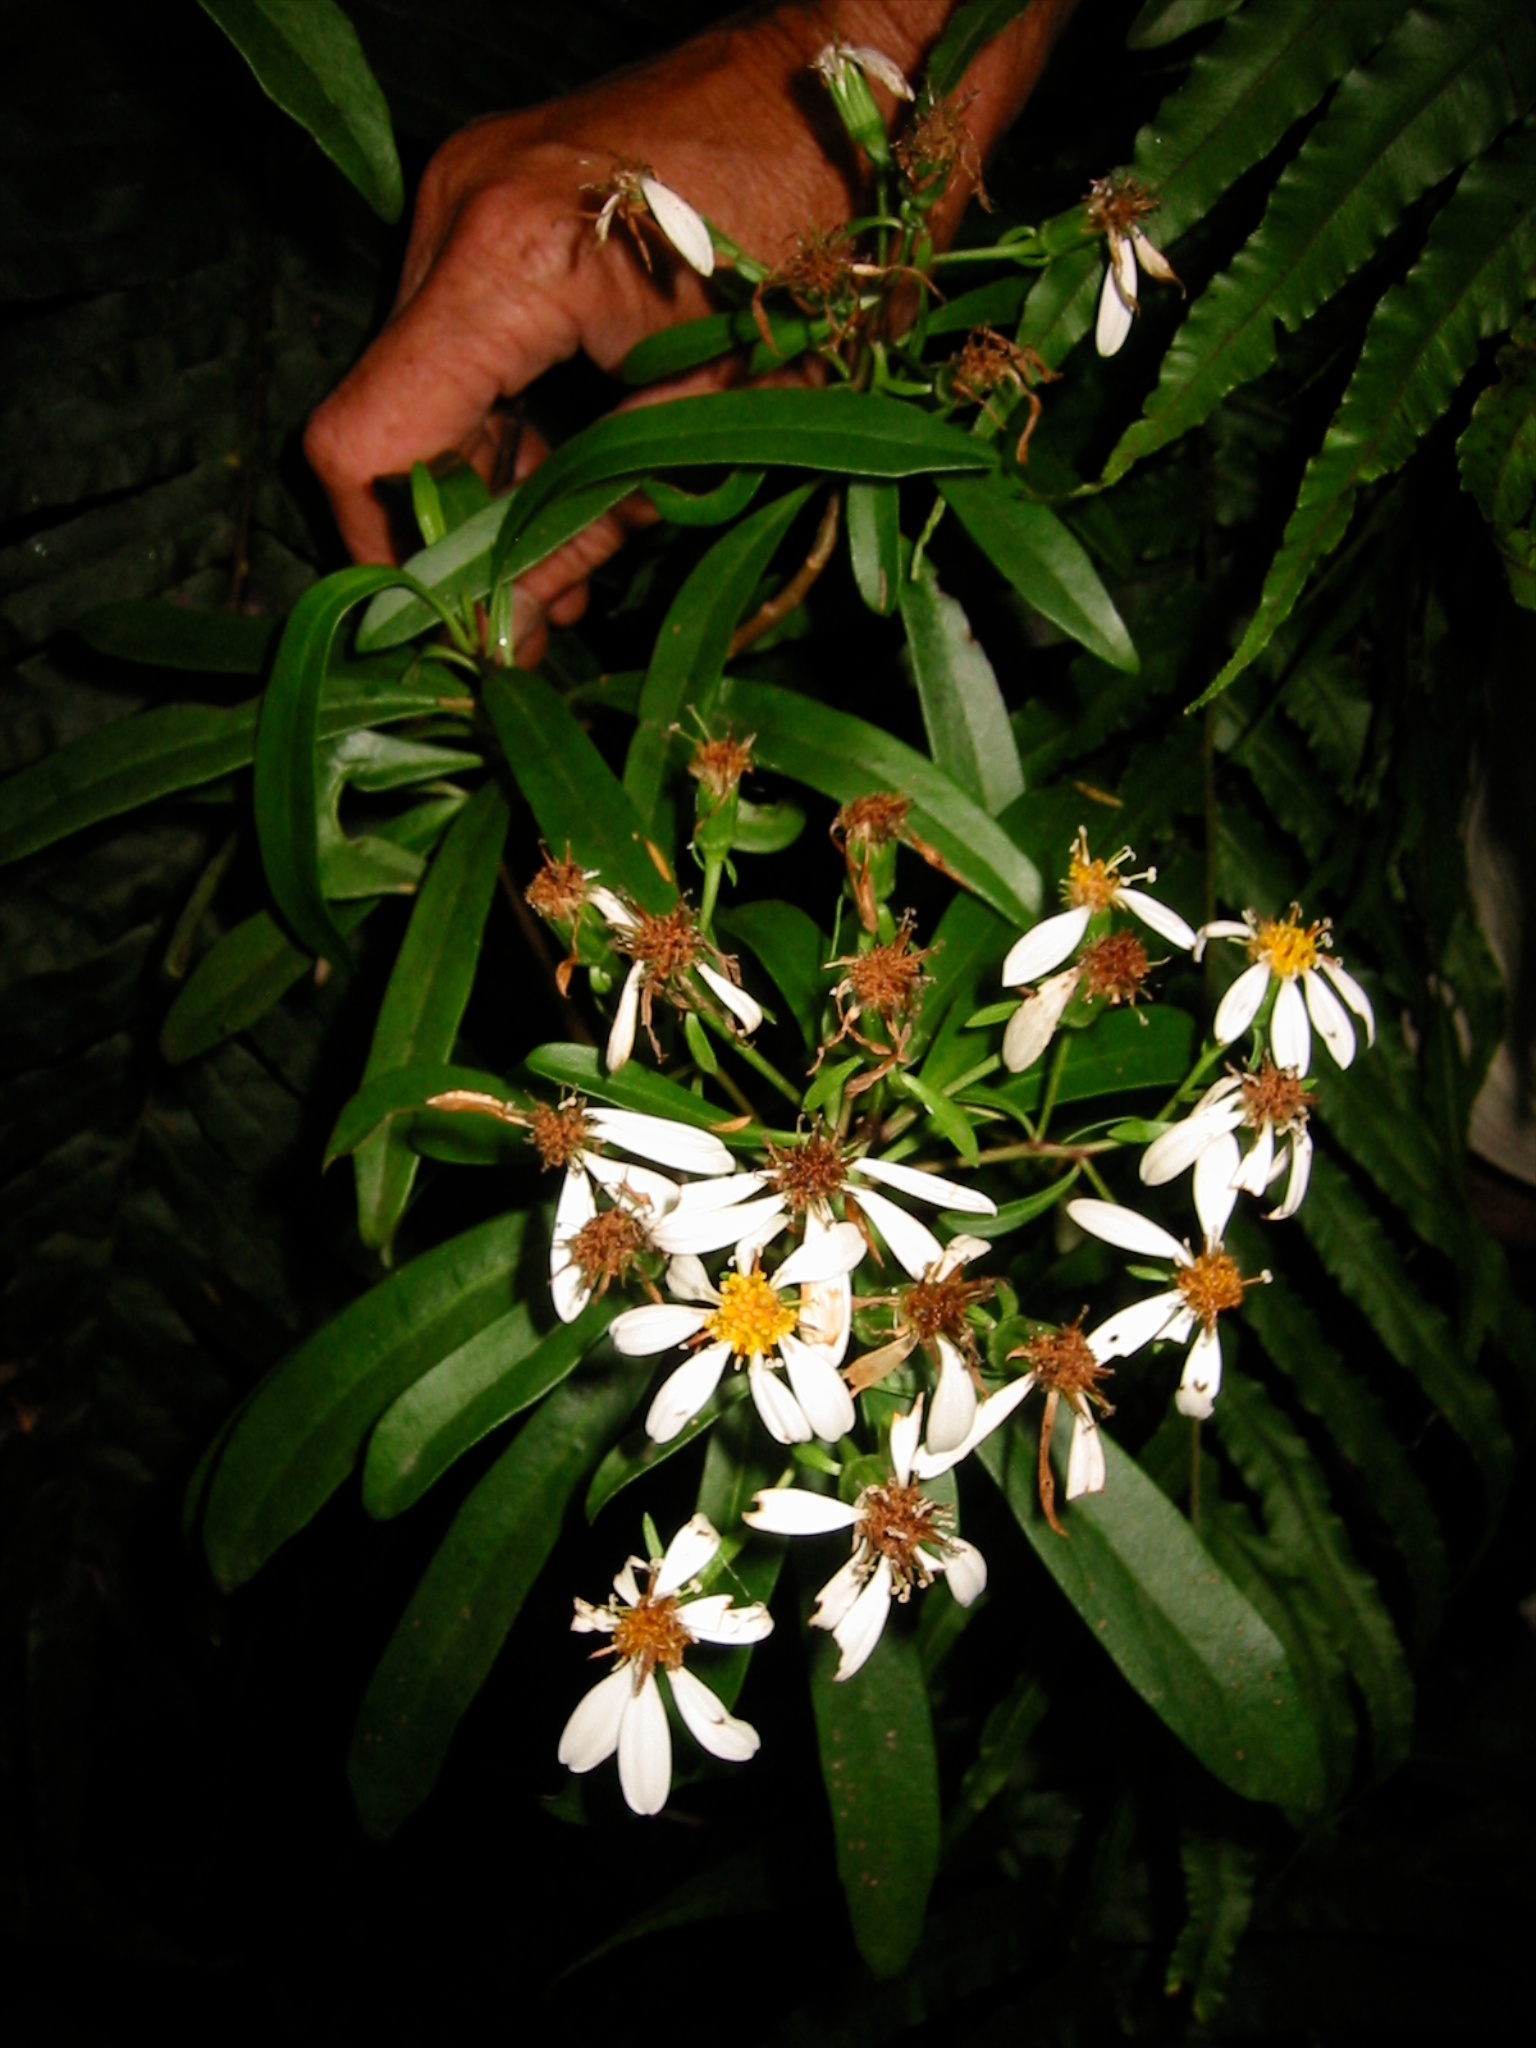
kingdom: Plantae
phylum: Tracheophyta
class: Magnoliopsida
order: Asterales
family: Asteraceae
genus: Brachyglottis
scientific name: Brachyglottis kirkii
